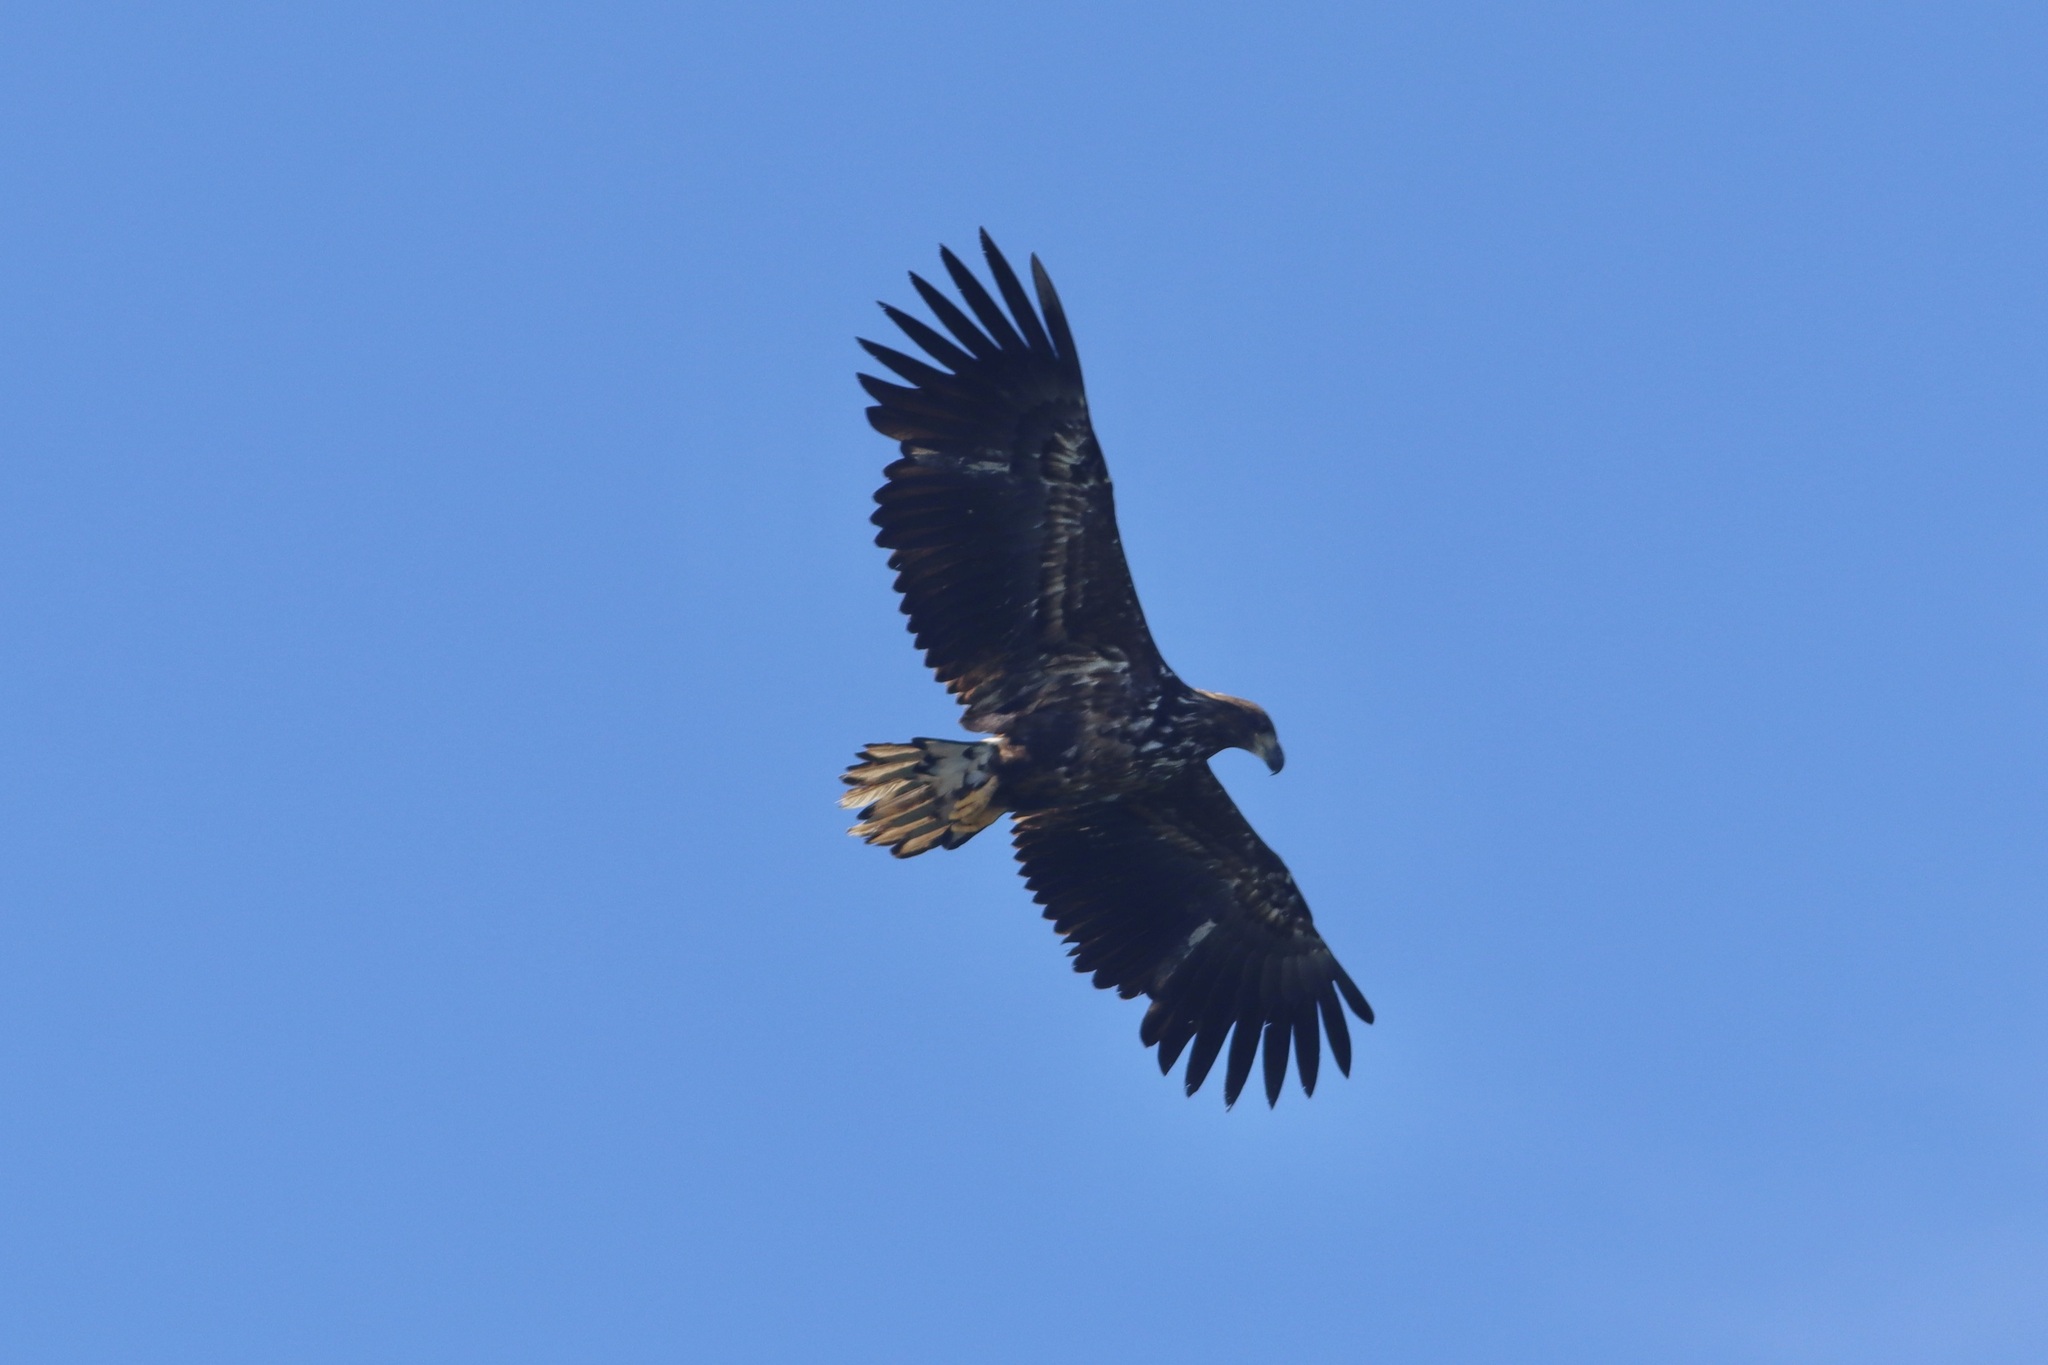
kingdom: Animalia
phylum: Chordata
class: Aves
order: Accipitriformes
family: Accipitridae
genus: Haliaeetus
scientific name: Haliaeetus albicilla
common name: White-tailed eagle
